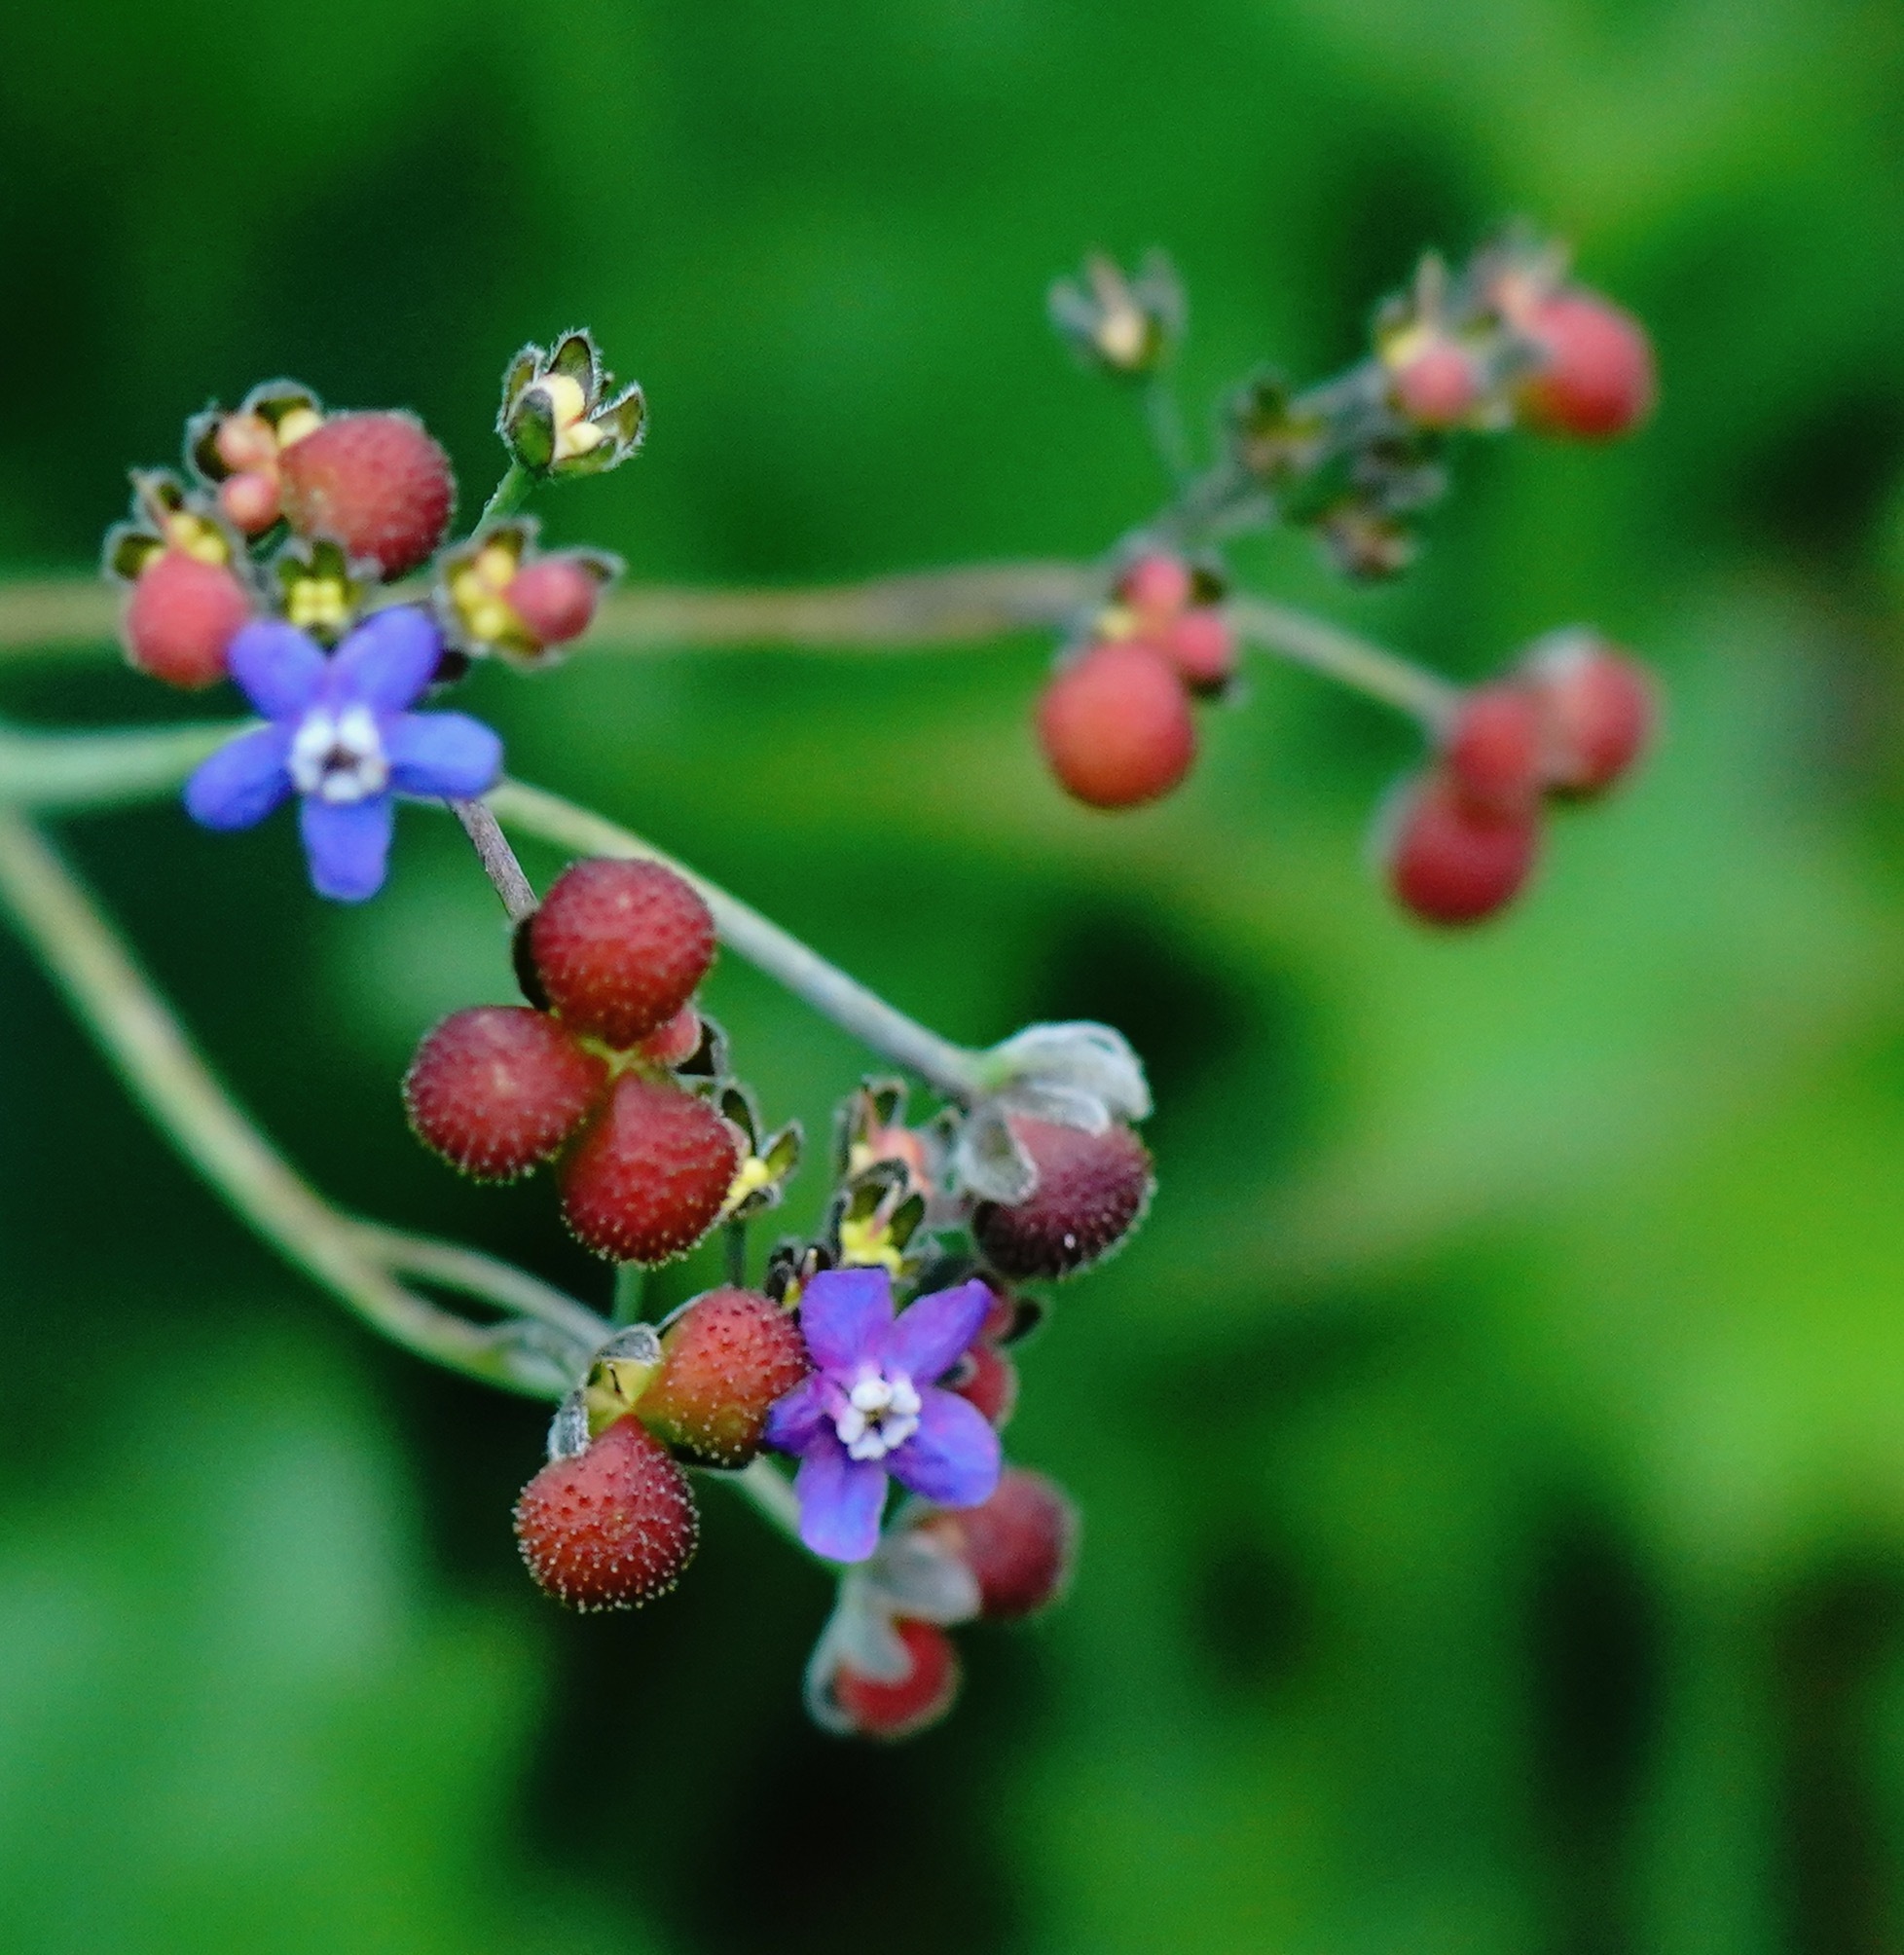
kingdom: Plantae
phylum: Tracheophyta
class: Magnoliopsida
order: Boraginales
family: Boraginaceae
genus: Adelinia
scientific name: Adelinia grande
